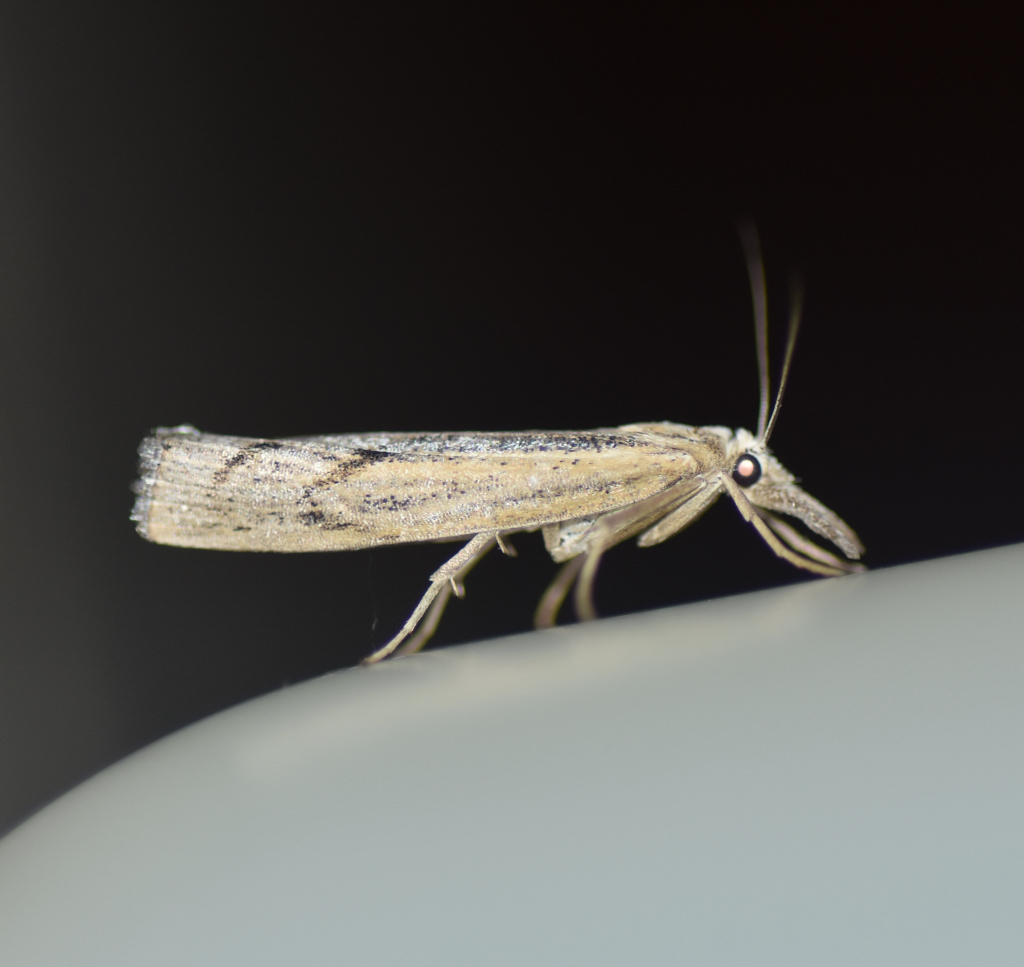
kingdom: Animalia
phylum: Arthropoda
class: Insecta
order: Lepidoptera
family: Crambidae
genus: Pediasia
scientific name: Pediasia trisecta
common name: Sod webworm moth
